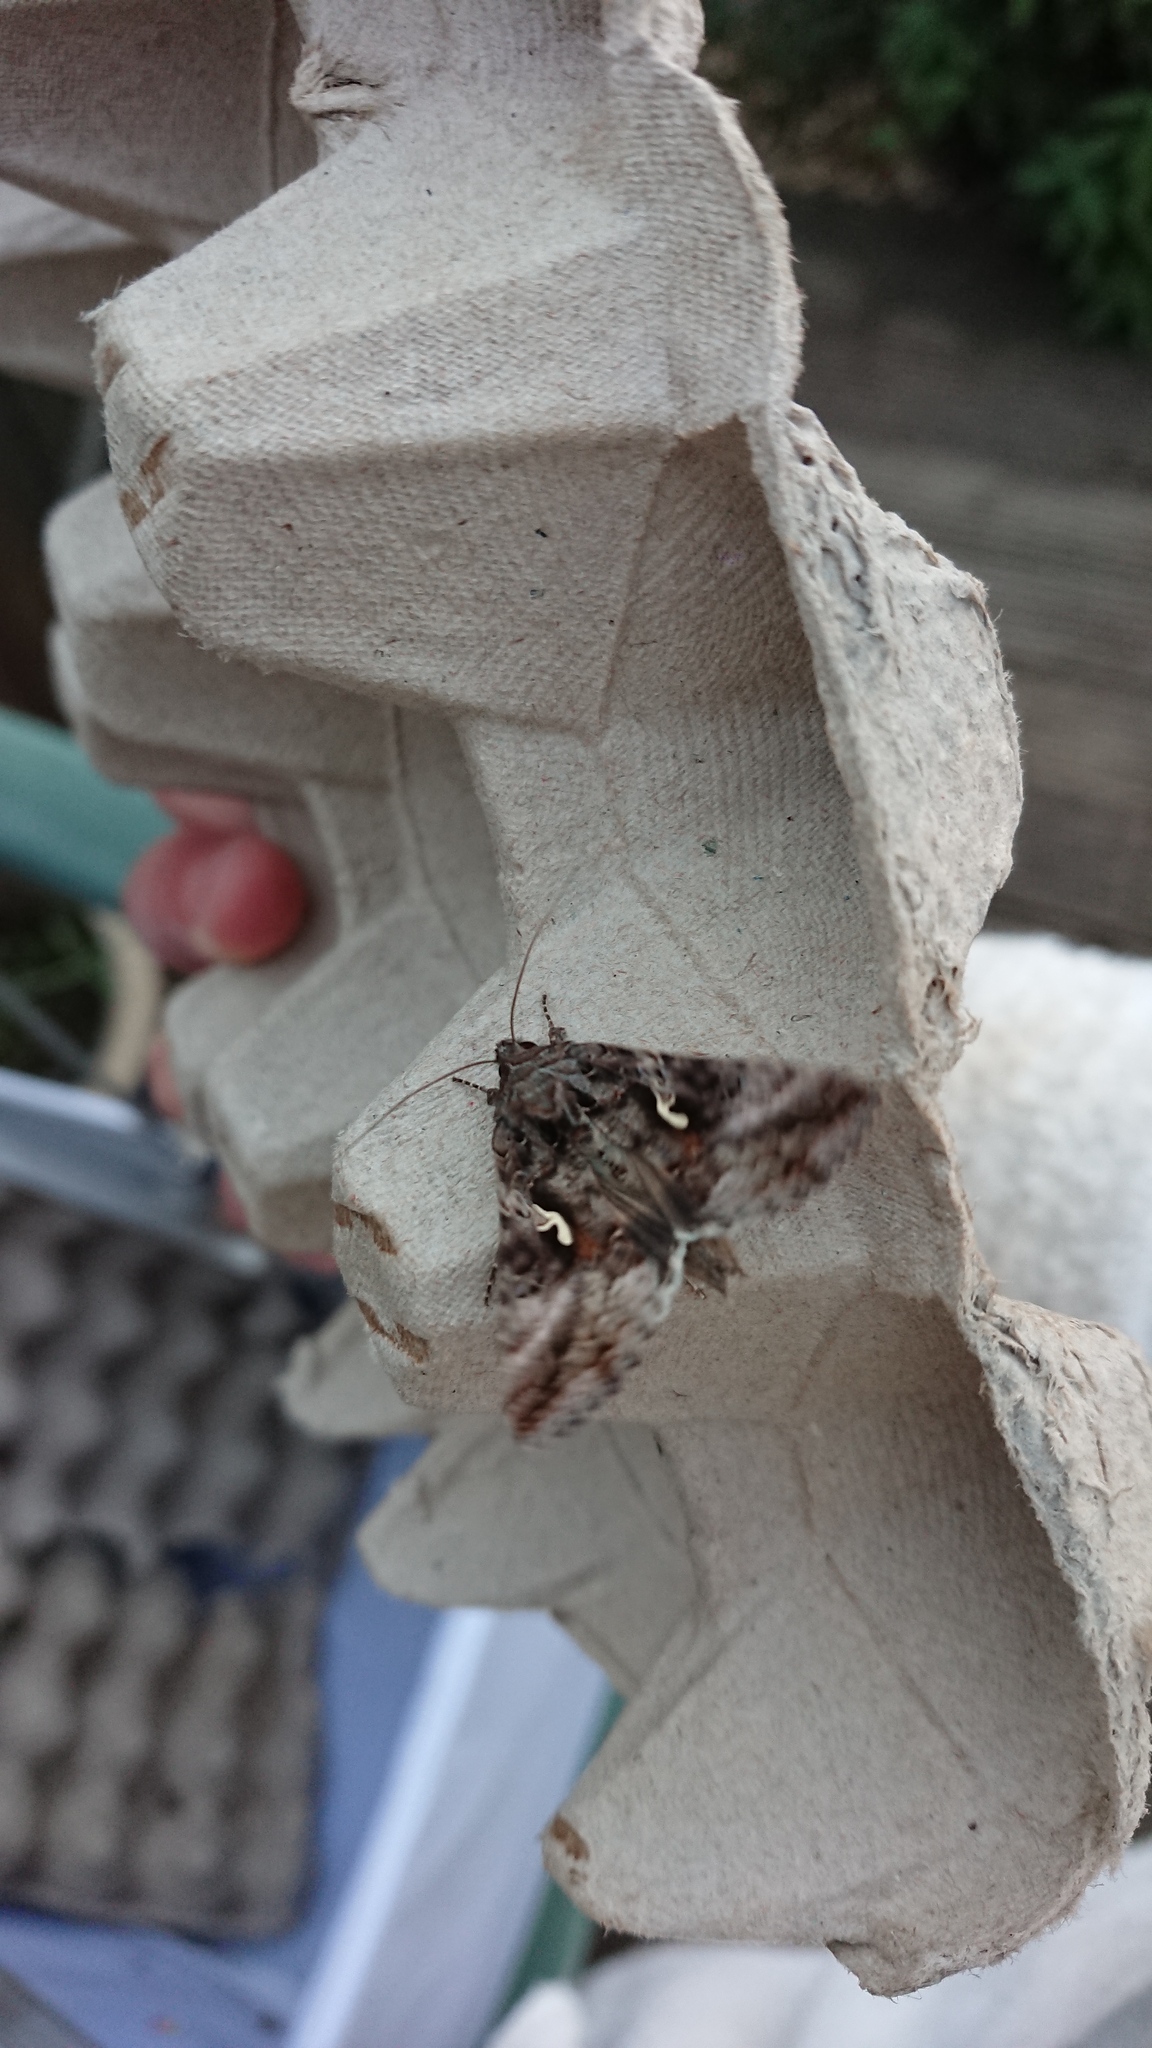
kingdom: Animalia
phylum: Arthropoda
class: Insecta
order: Lepidoptera
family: Noctuidae
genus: Autographa
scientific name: Autographa gamma
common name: Silver y
